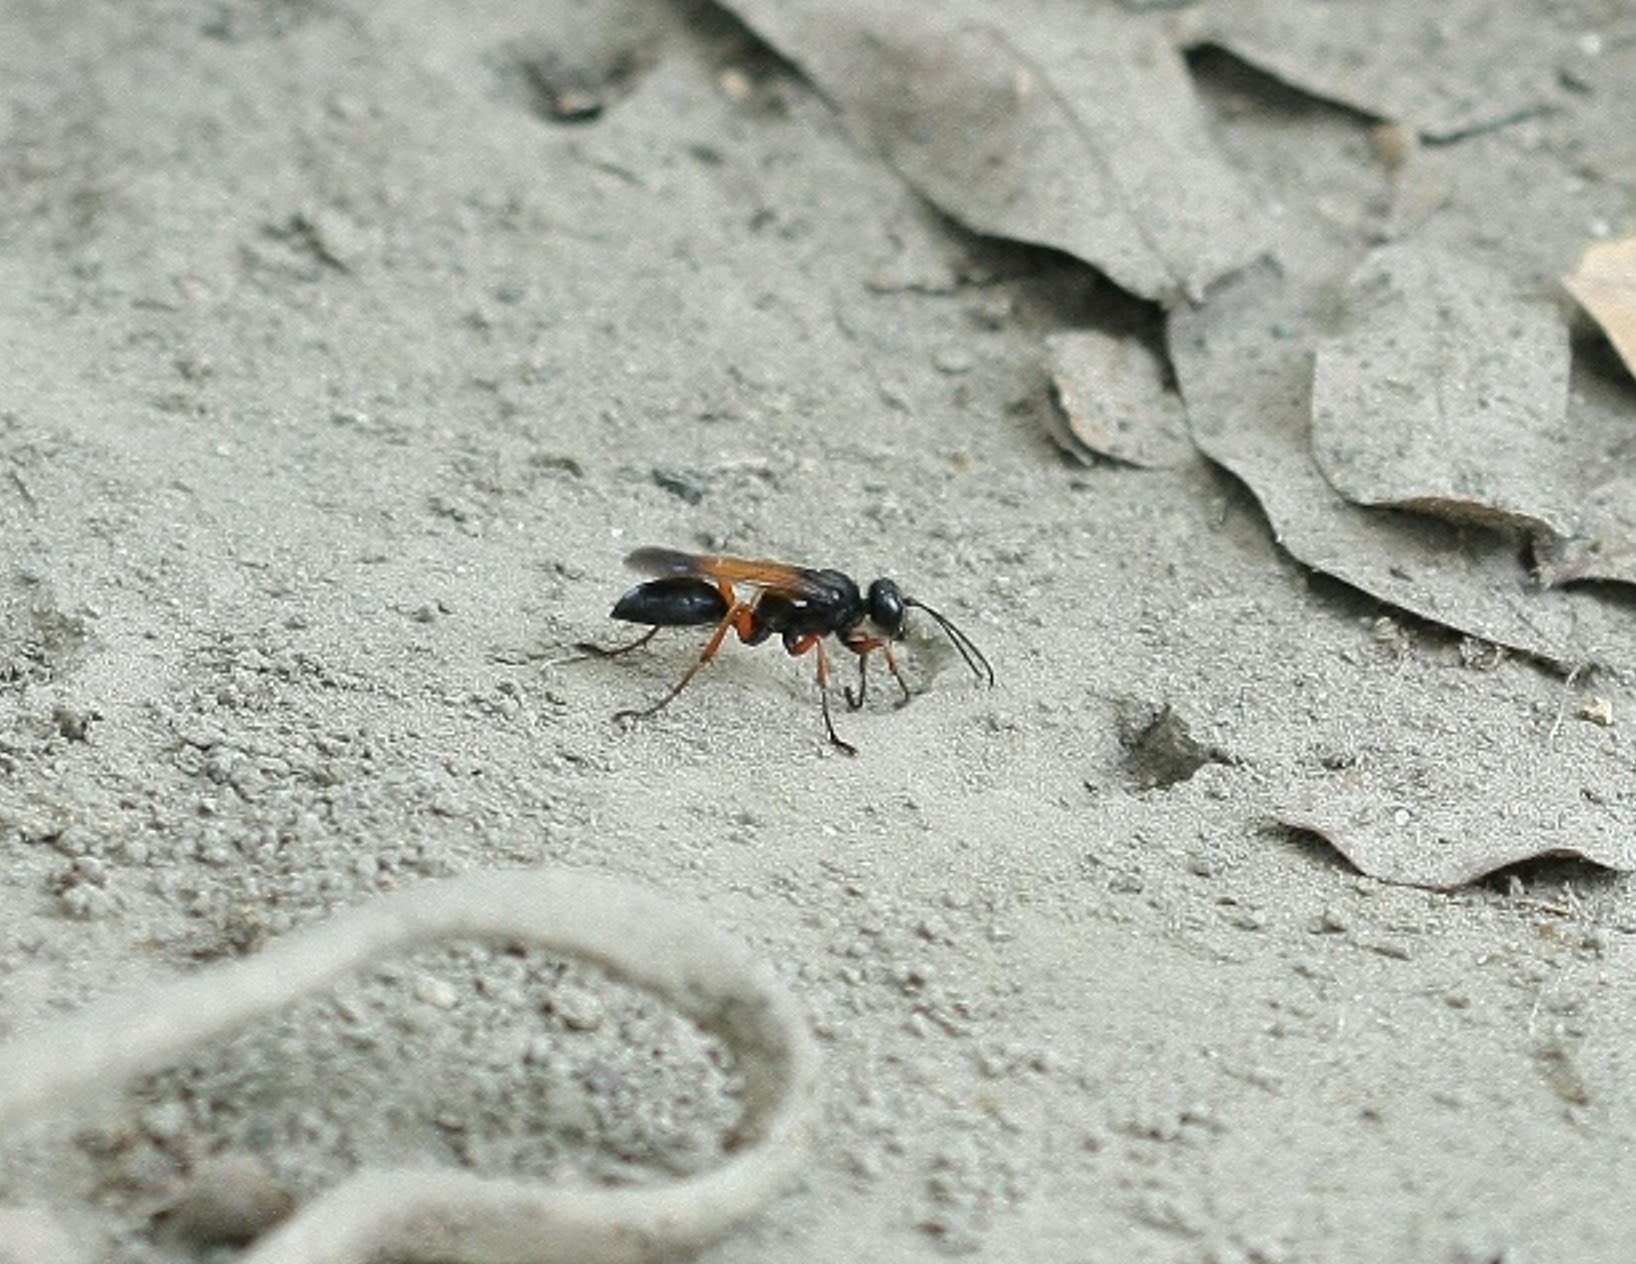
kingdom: Animalia
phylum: Arthropoda
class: Insecta
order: Hymenoptera
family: Sphecidae
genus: Sphex
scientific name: Sphex subtruncatus
